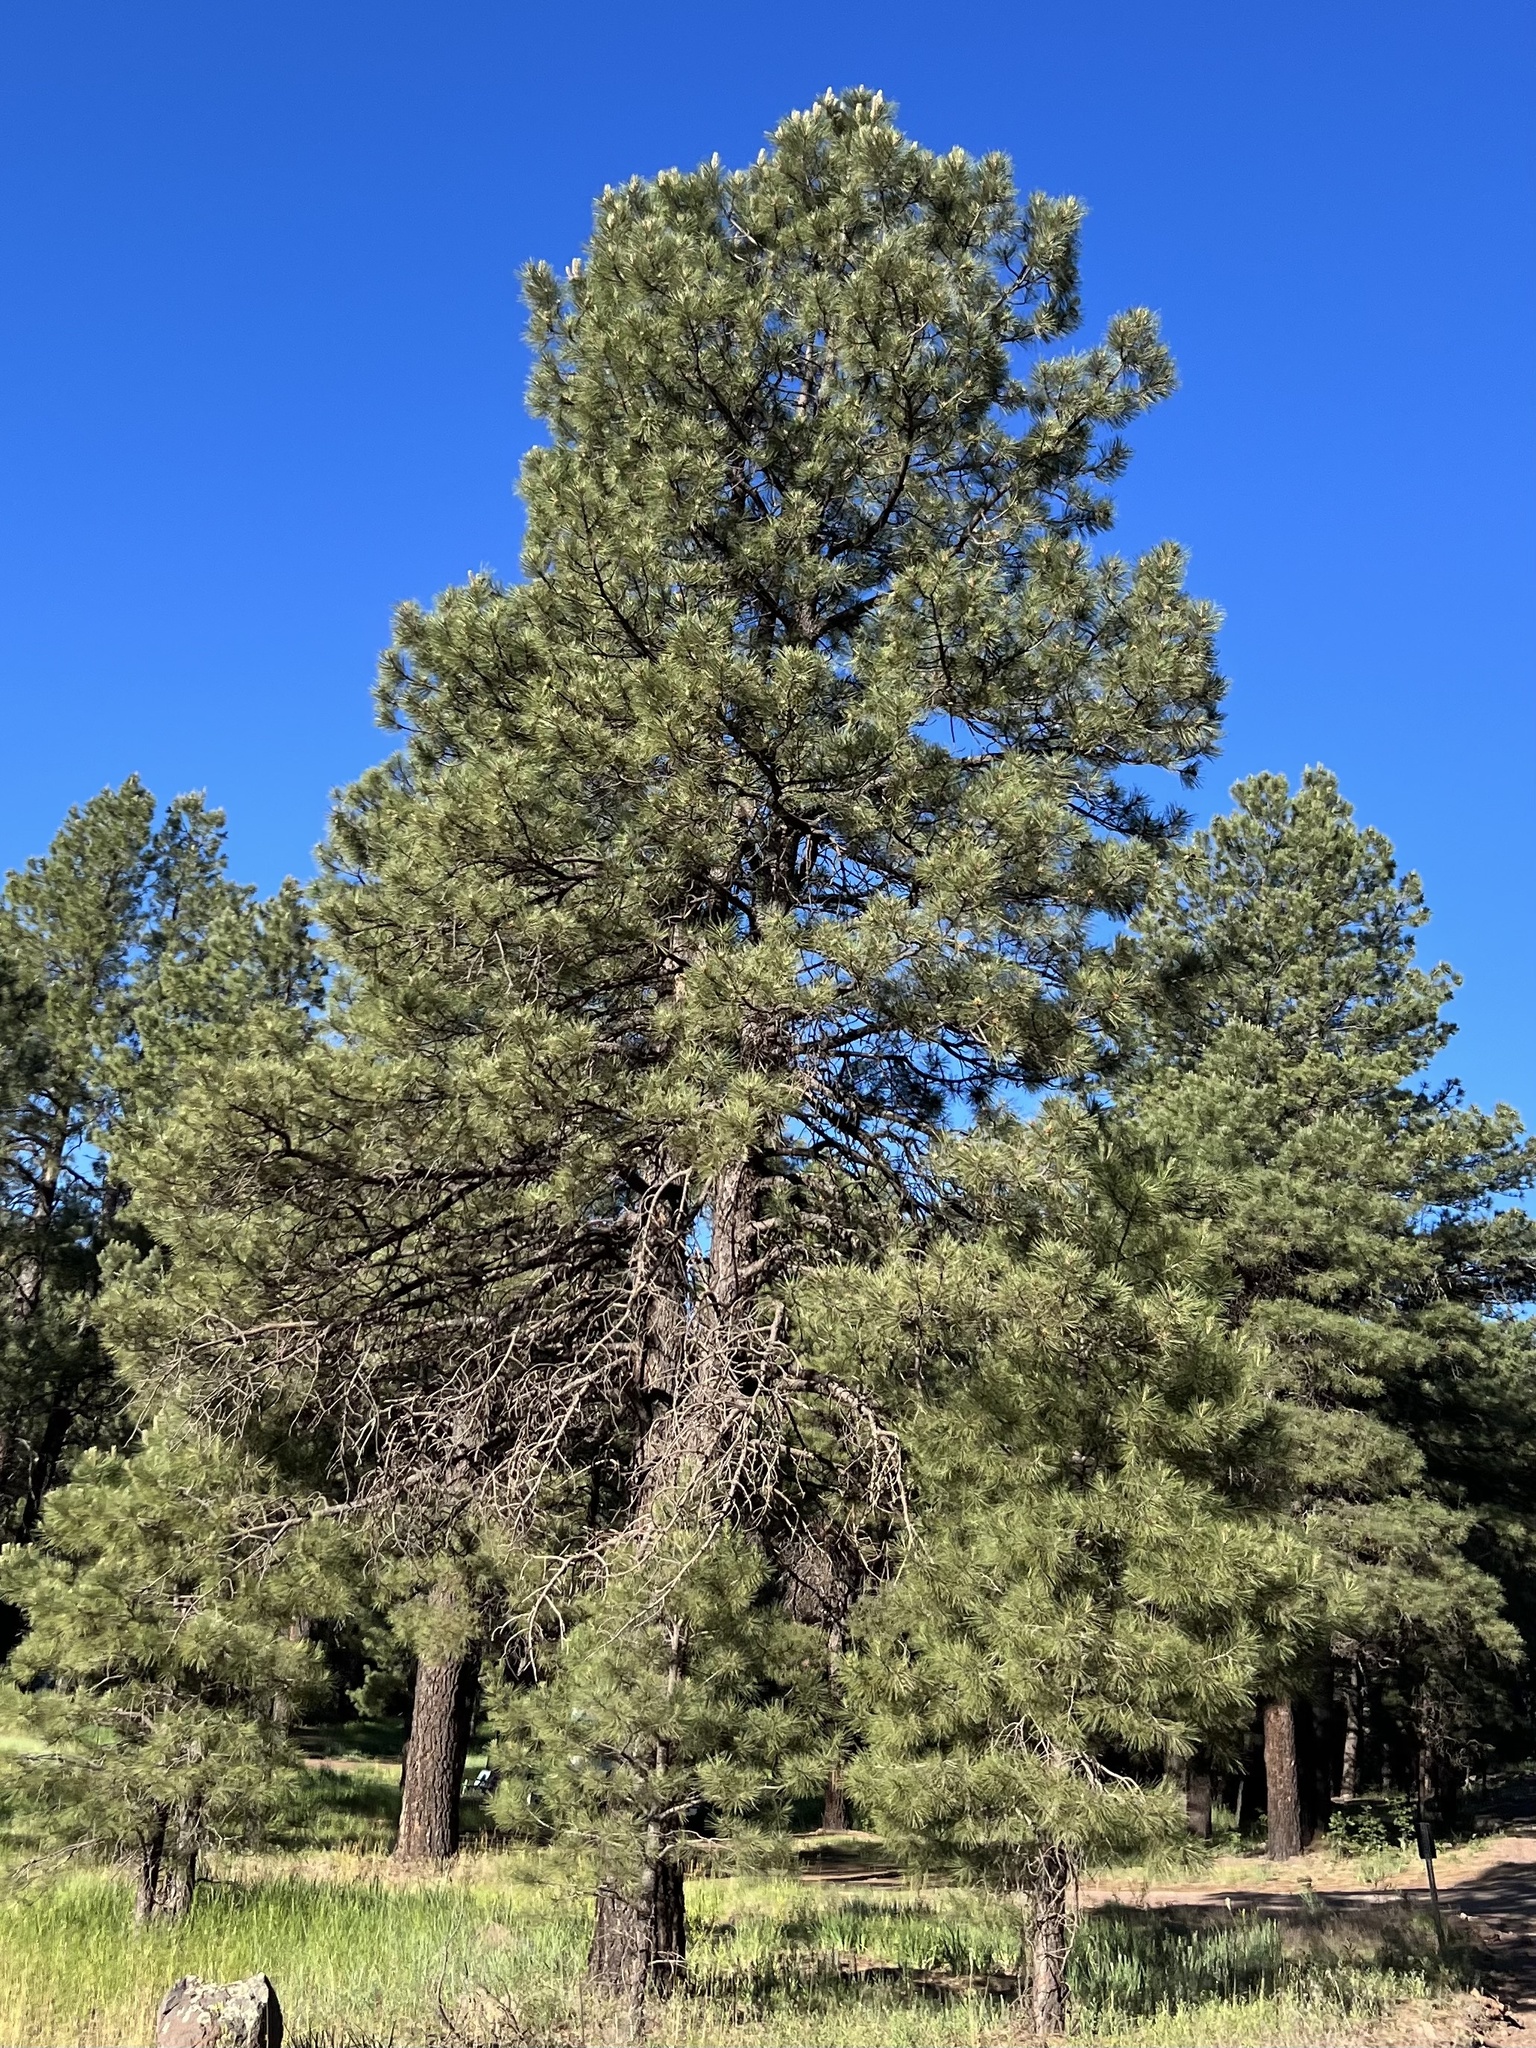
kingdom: Plantae
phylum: Tracheophyta
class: Pinopsida
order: Pinales
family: Pinaceae
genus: Pinus
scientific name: Pinus ponderosa
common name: Western yellow-pine
